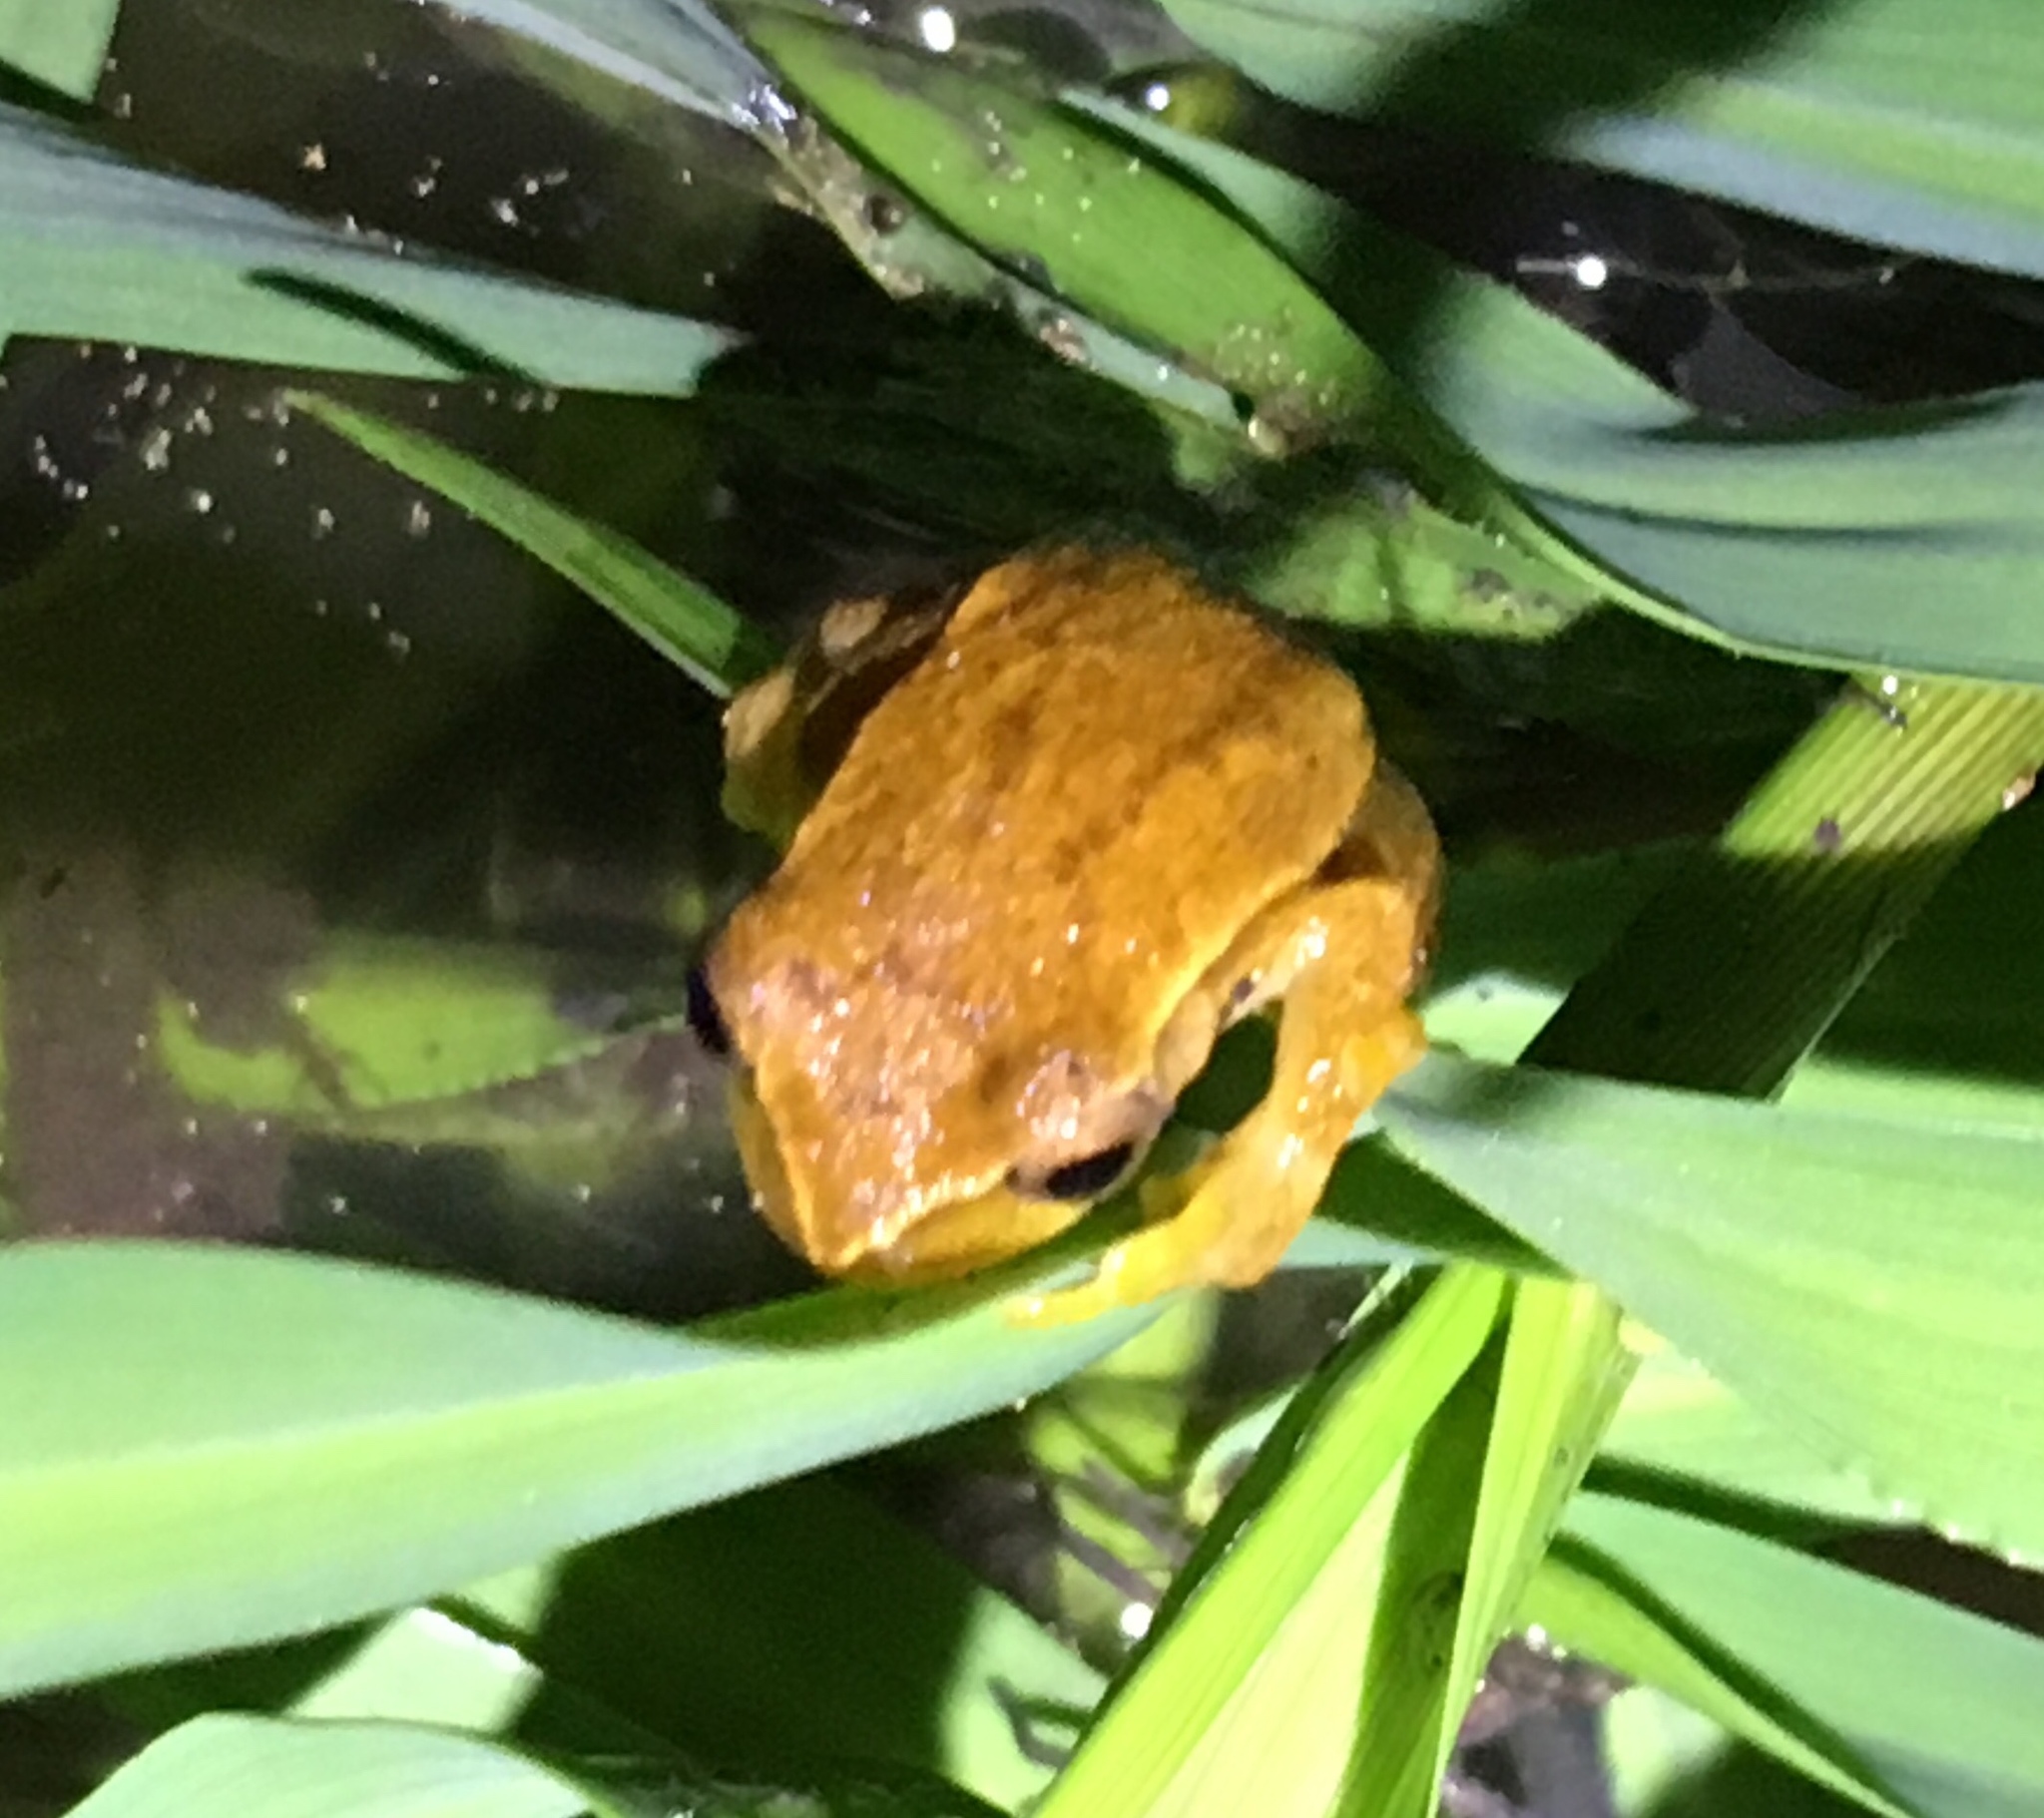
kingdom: Animalia
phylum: Chordata
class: Amphibia
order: Anura
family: Hylidae
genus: Dendropsophus
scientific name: Dendropsophus microcephalus
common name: Small-headed treefrog
